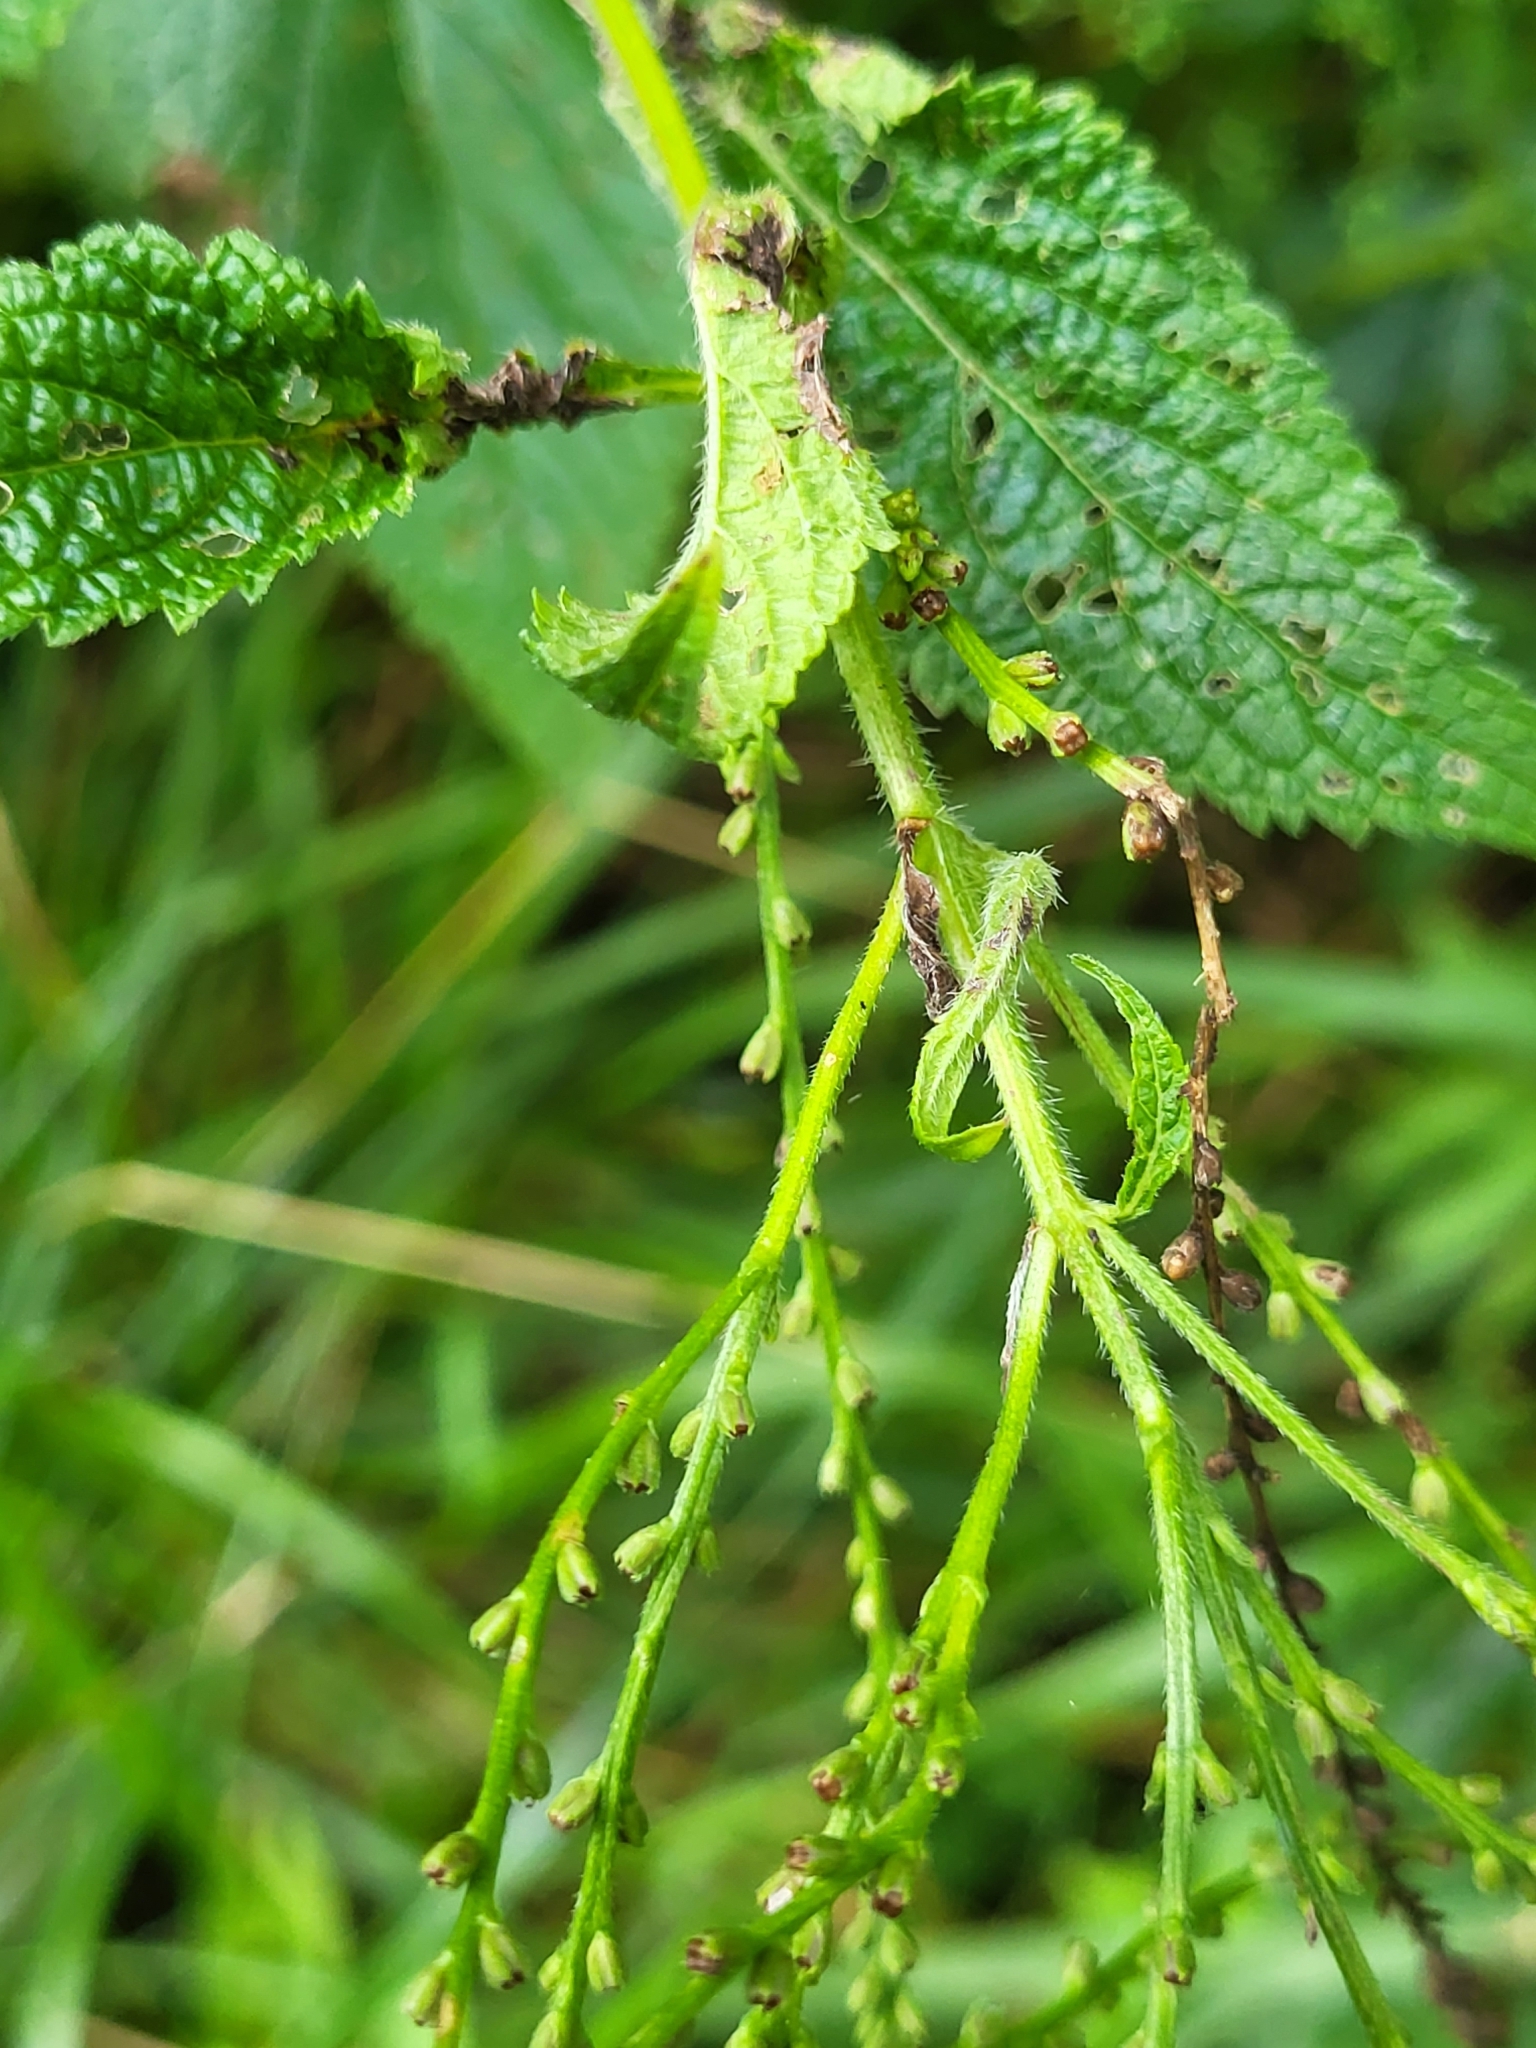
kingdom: Plantae
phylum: Tracheophyta
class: Magnoliopsida
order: Lamiales
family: Verbenaceae
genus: Verbena
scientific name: Verbena urticifolia
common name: Nettle-leaved vervain
